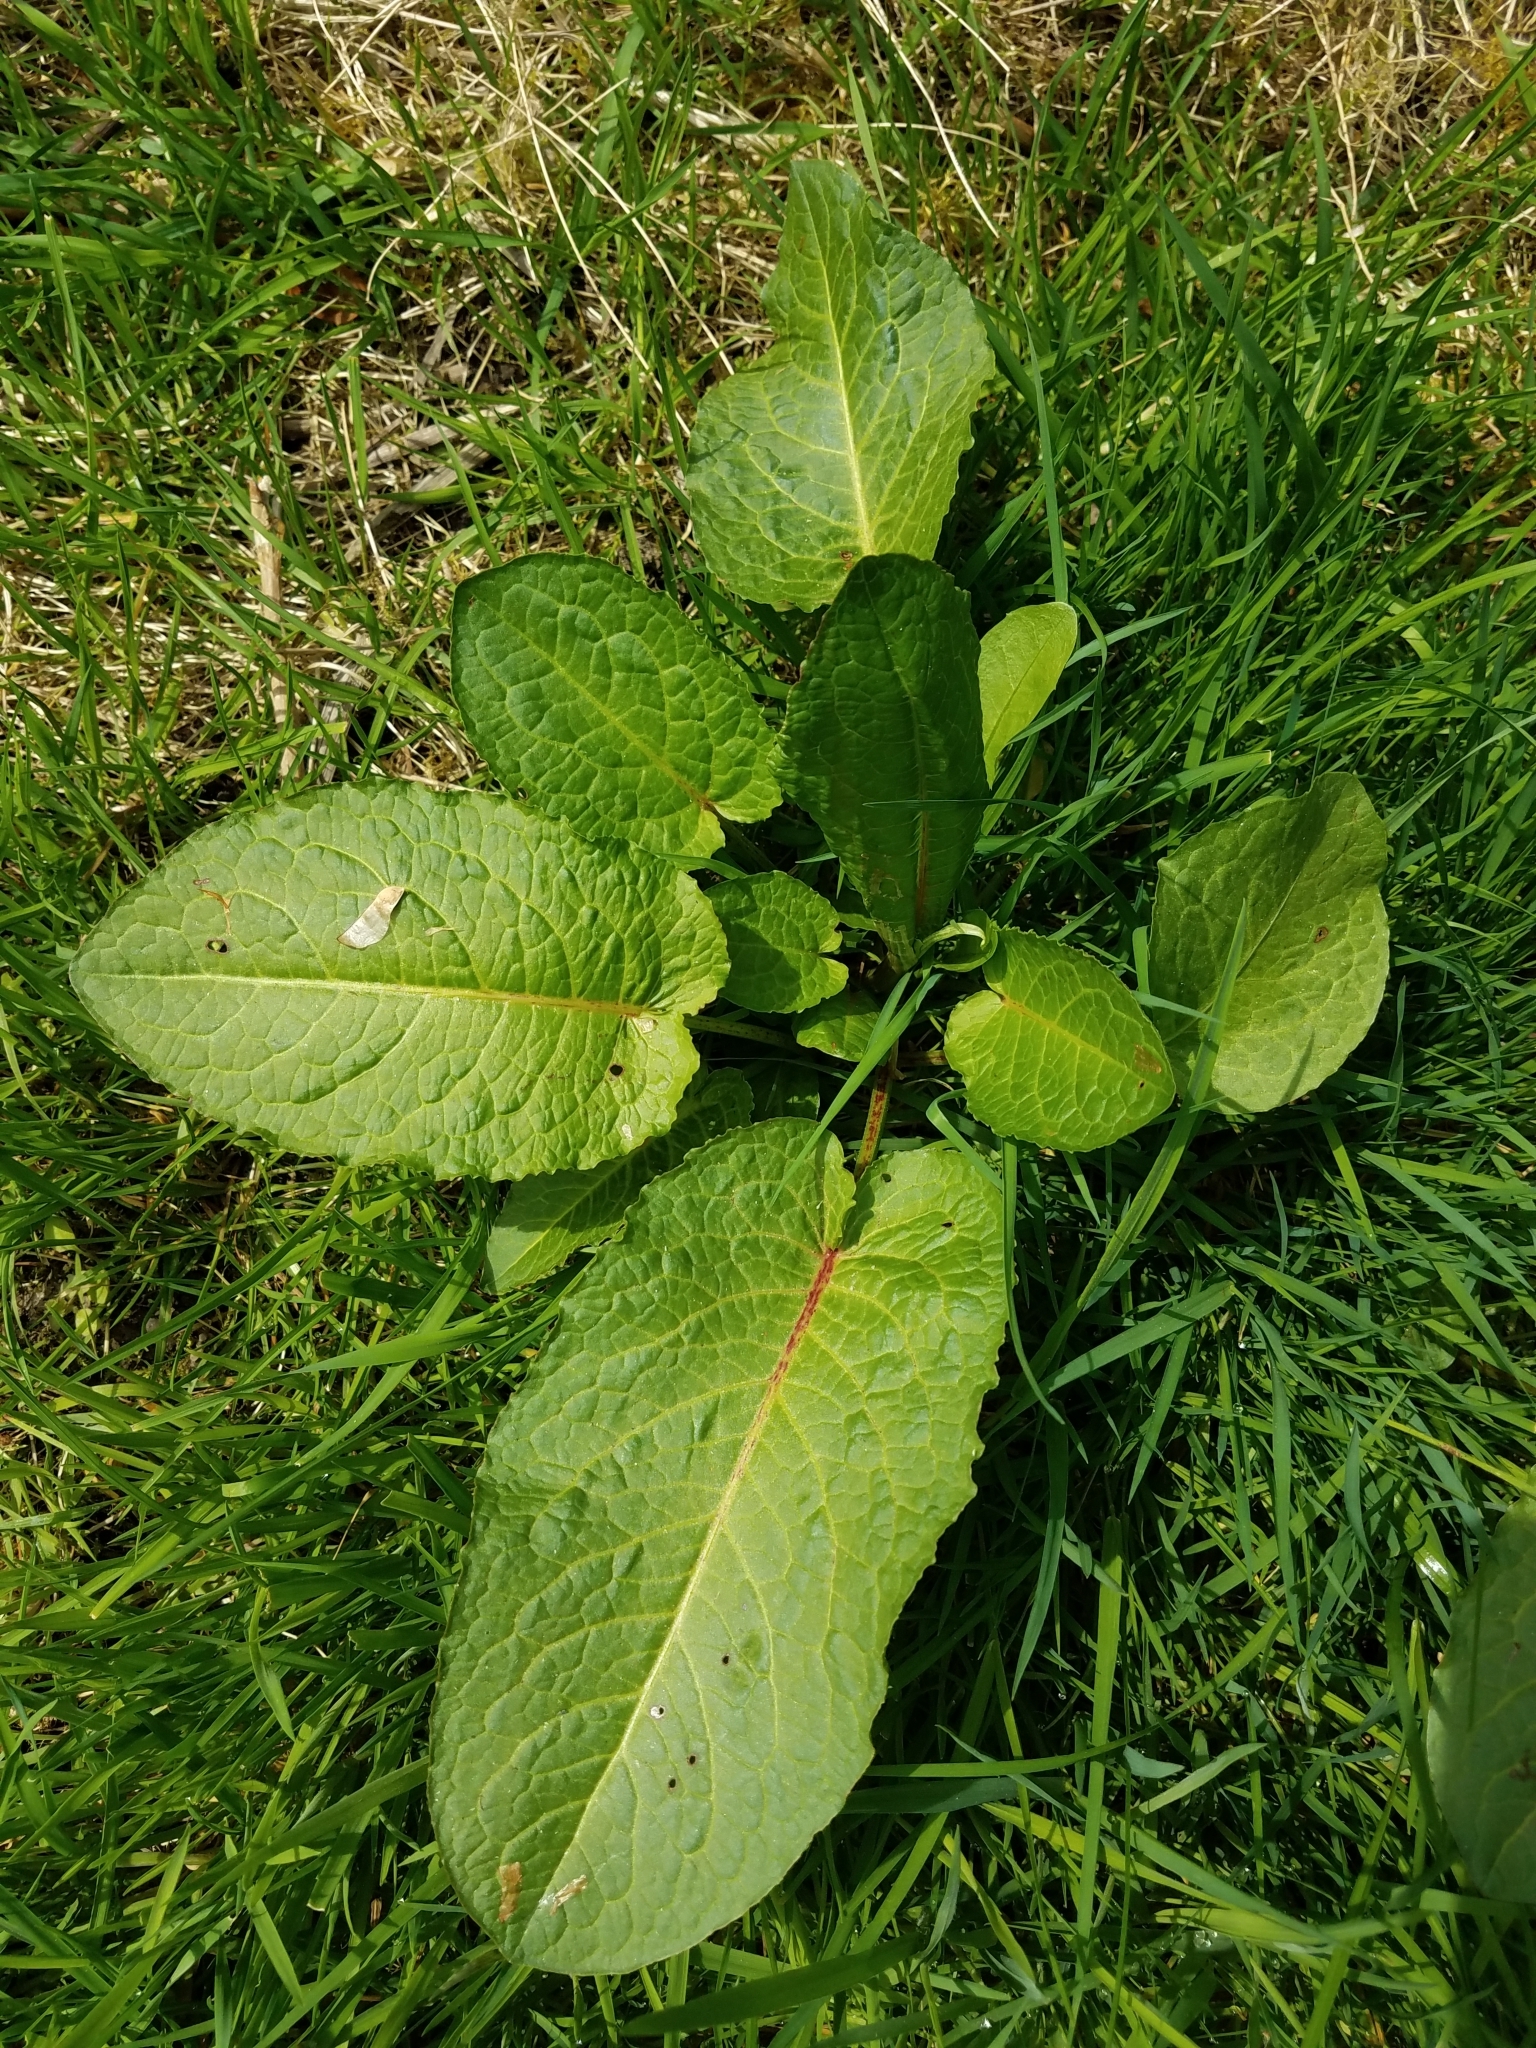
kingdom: Plantae
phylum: Tracheophyta
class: Magnoliopsida
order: Caryophyllales
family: Polygonaceae
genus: Rumex
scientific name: Rumex obtusifolius
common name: Bitter dock
